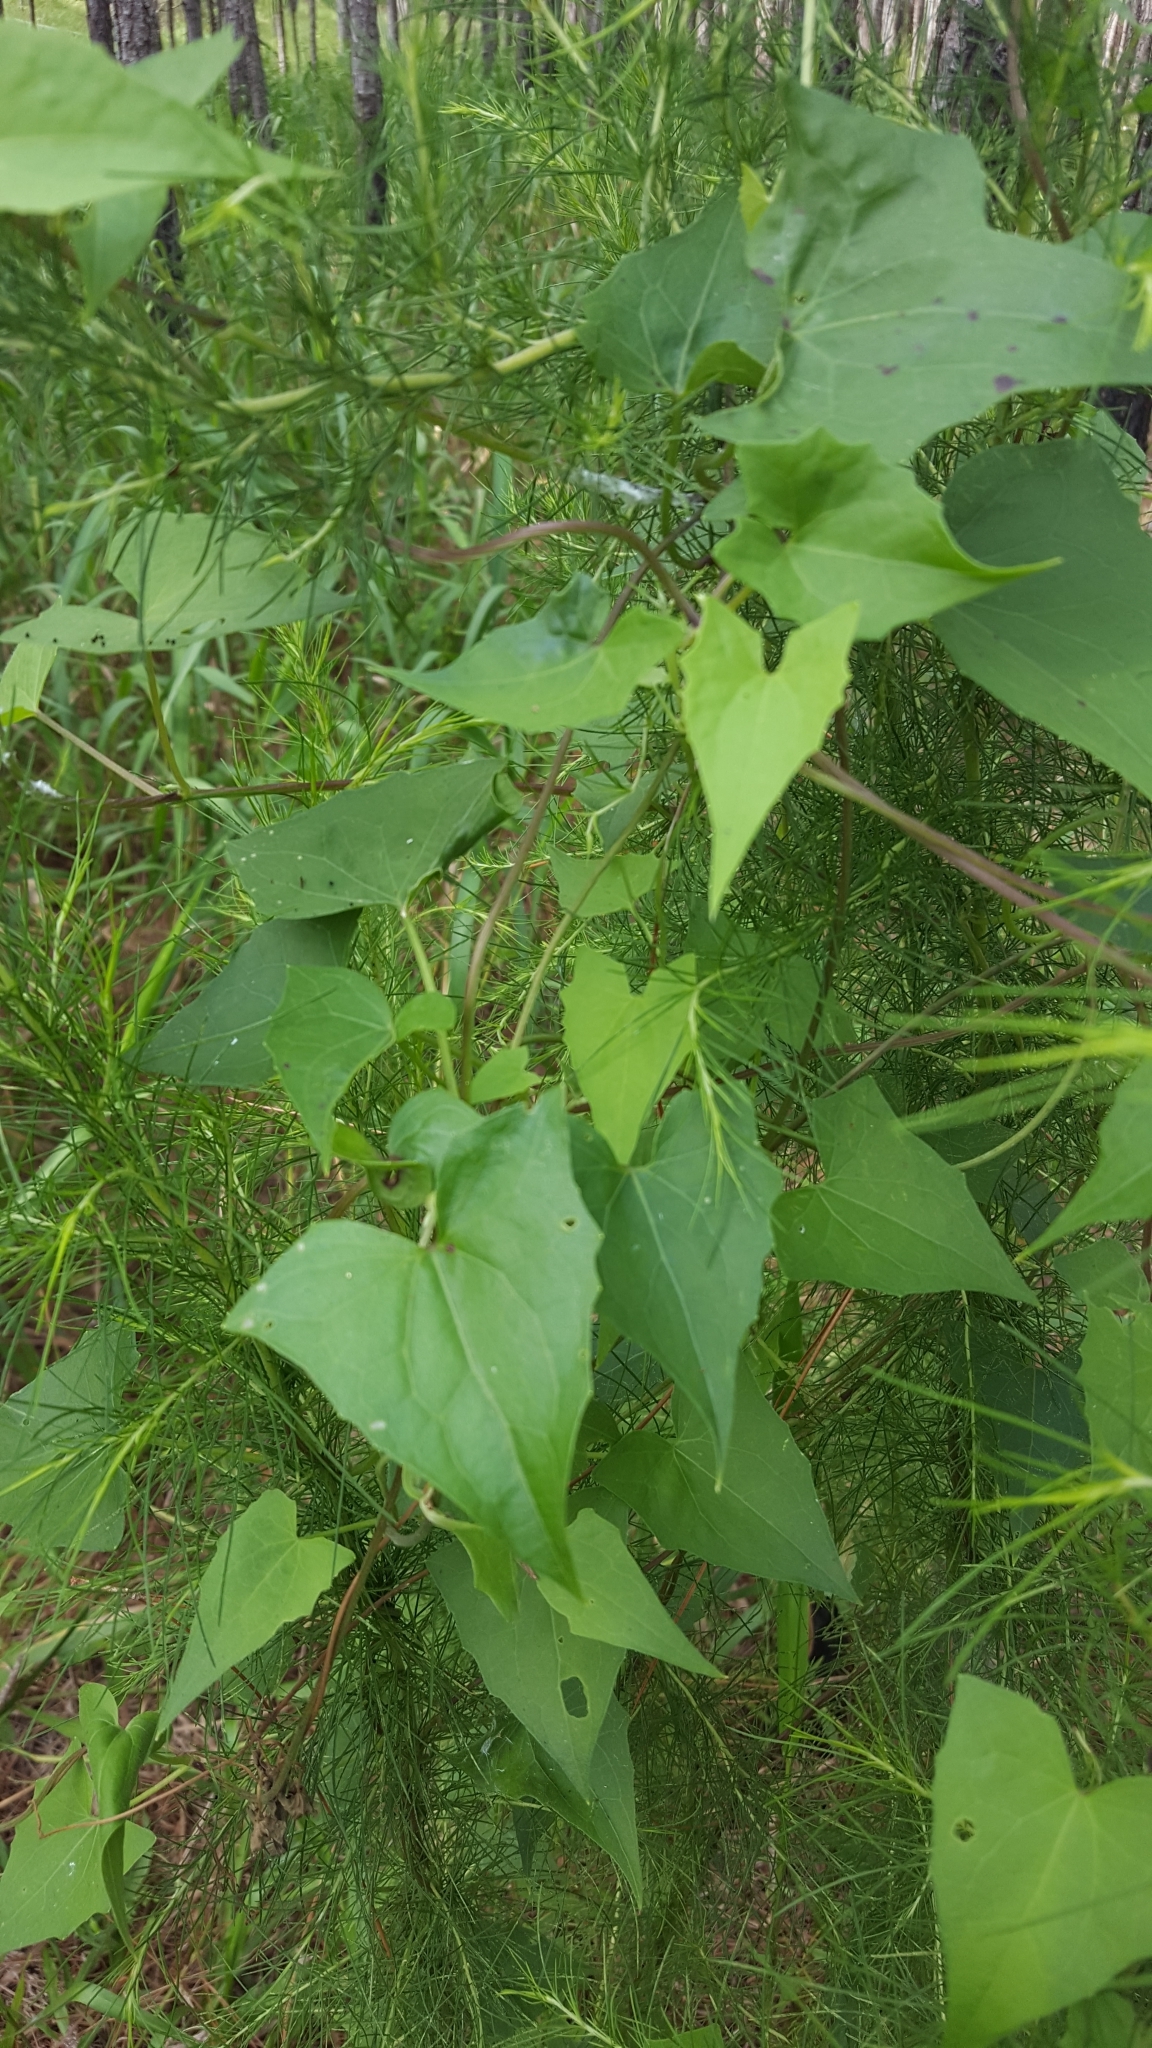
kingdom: Plantae
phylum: Tracheophyta
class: Magnoliopsida
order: Asterales
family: Asteraceae
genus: Mikania
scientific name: Mikania scandens
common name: Climbing hempvine
